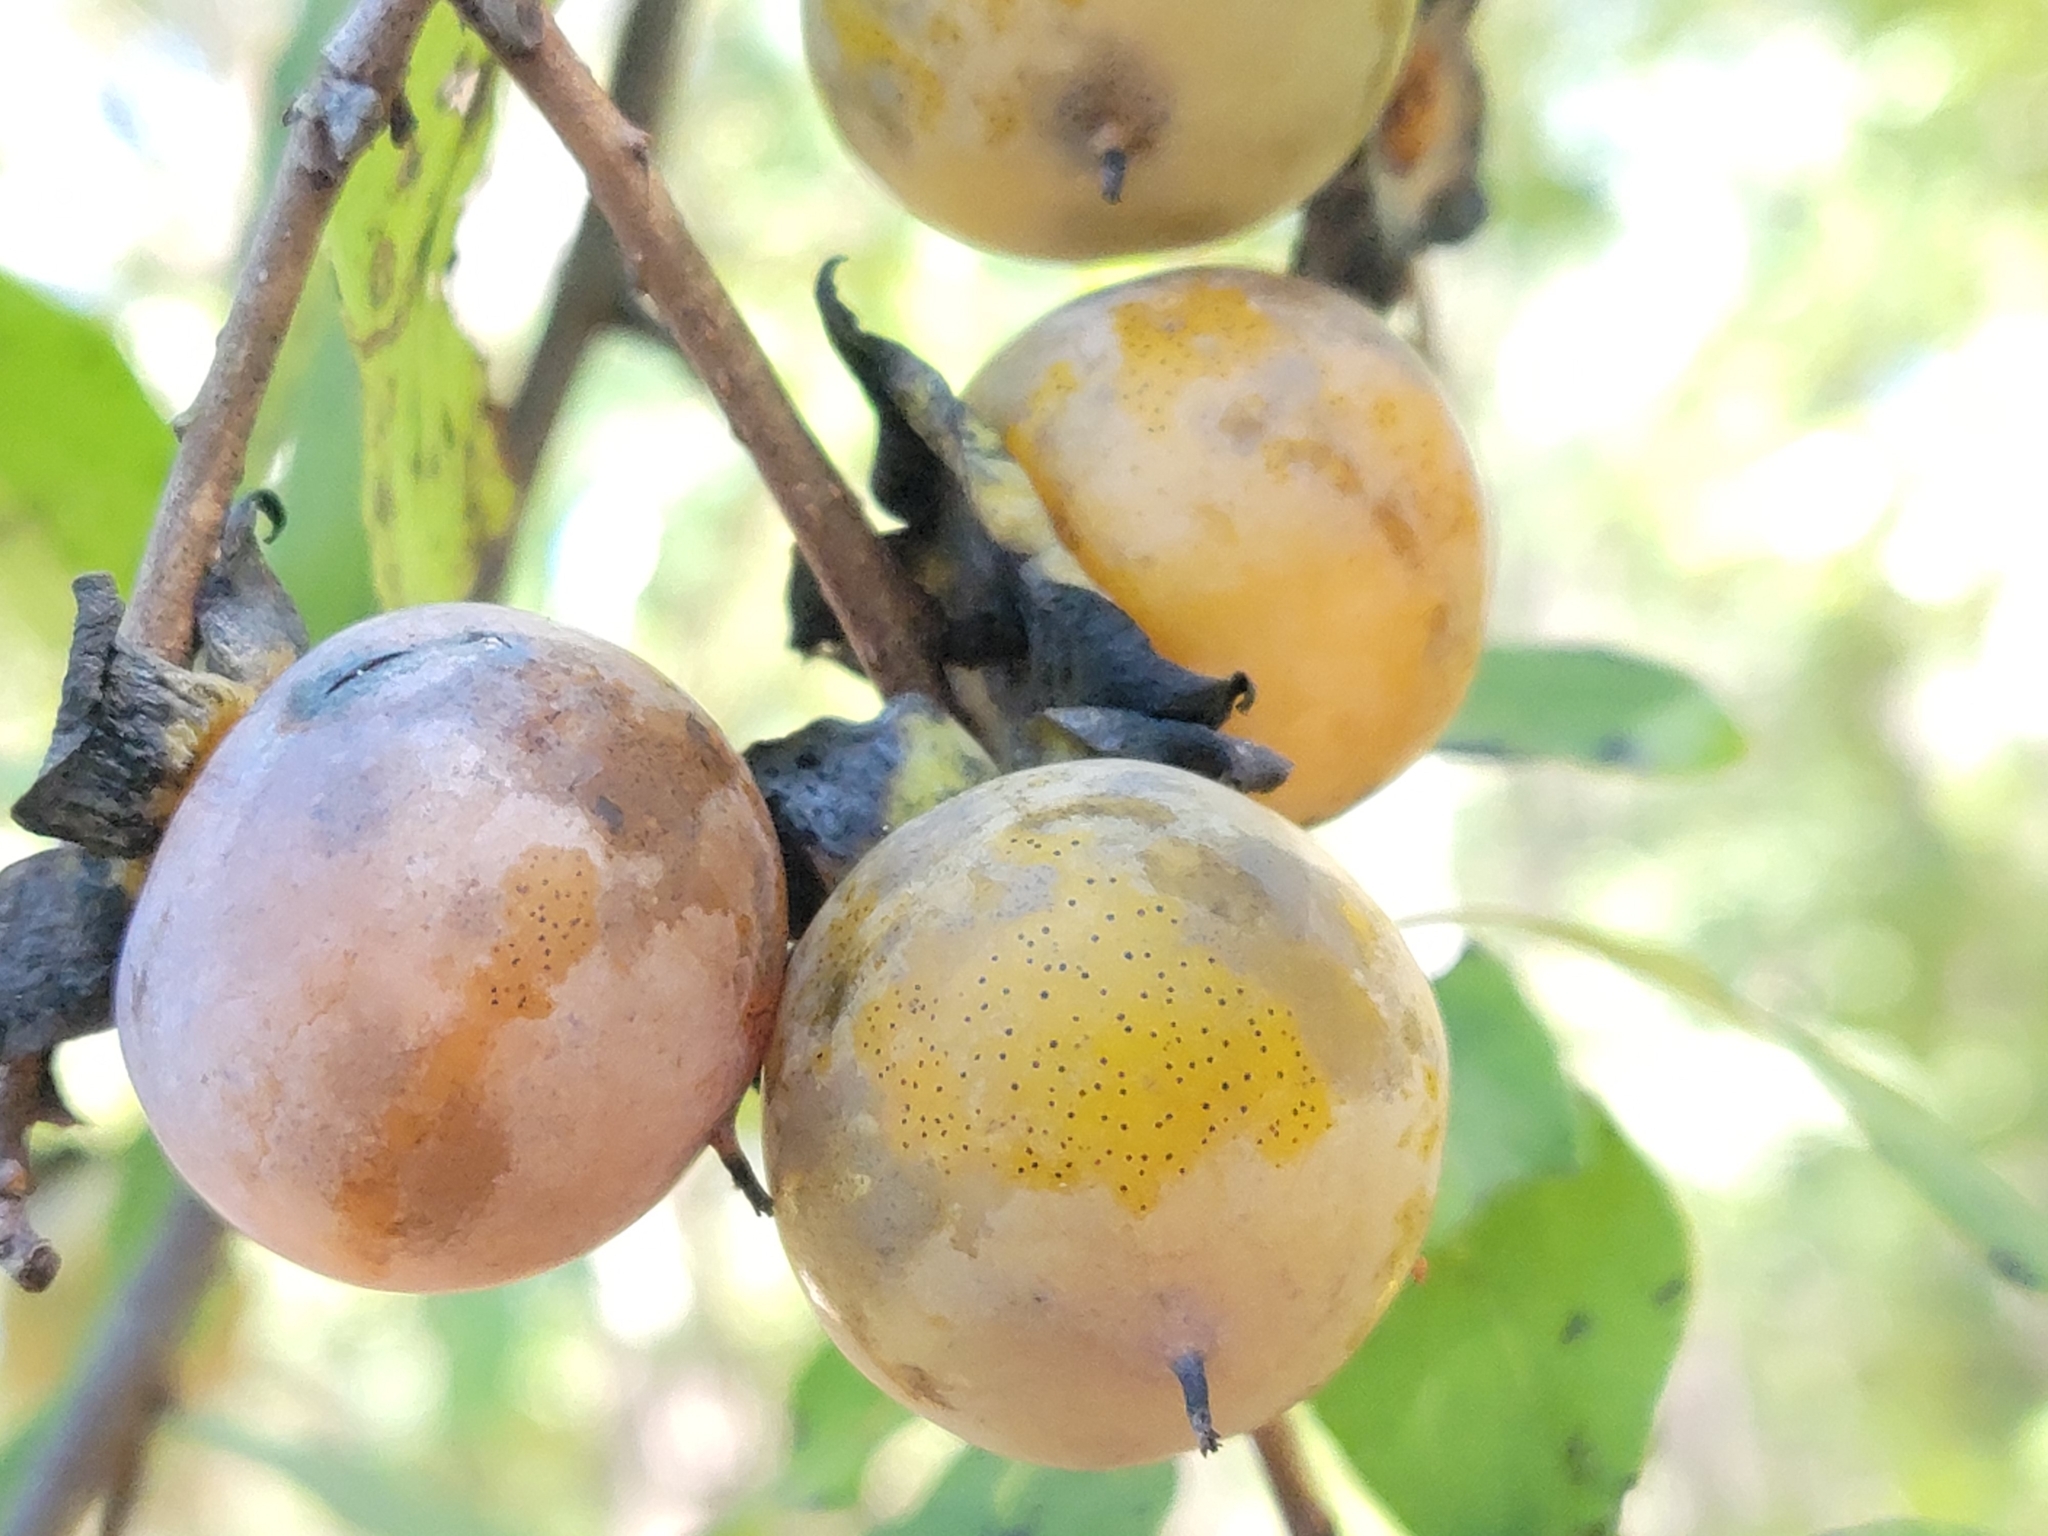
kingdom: Plantae
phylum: Tracheophyta
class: Magnoliopsida
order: Ericales
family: Ebenaceae
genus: Diospyros
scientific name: Diospyros virginiana
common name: Persimmon
